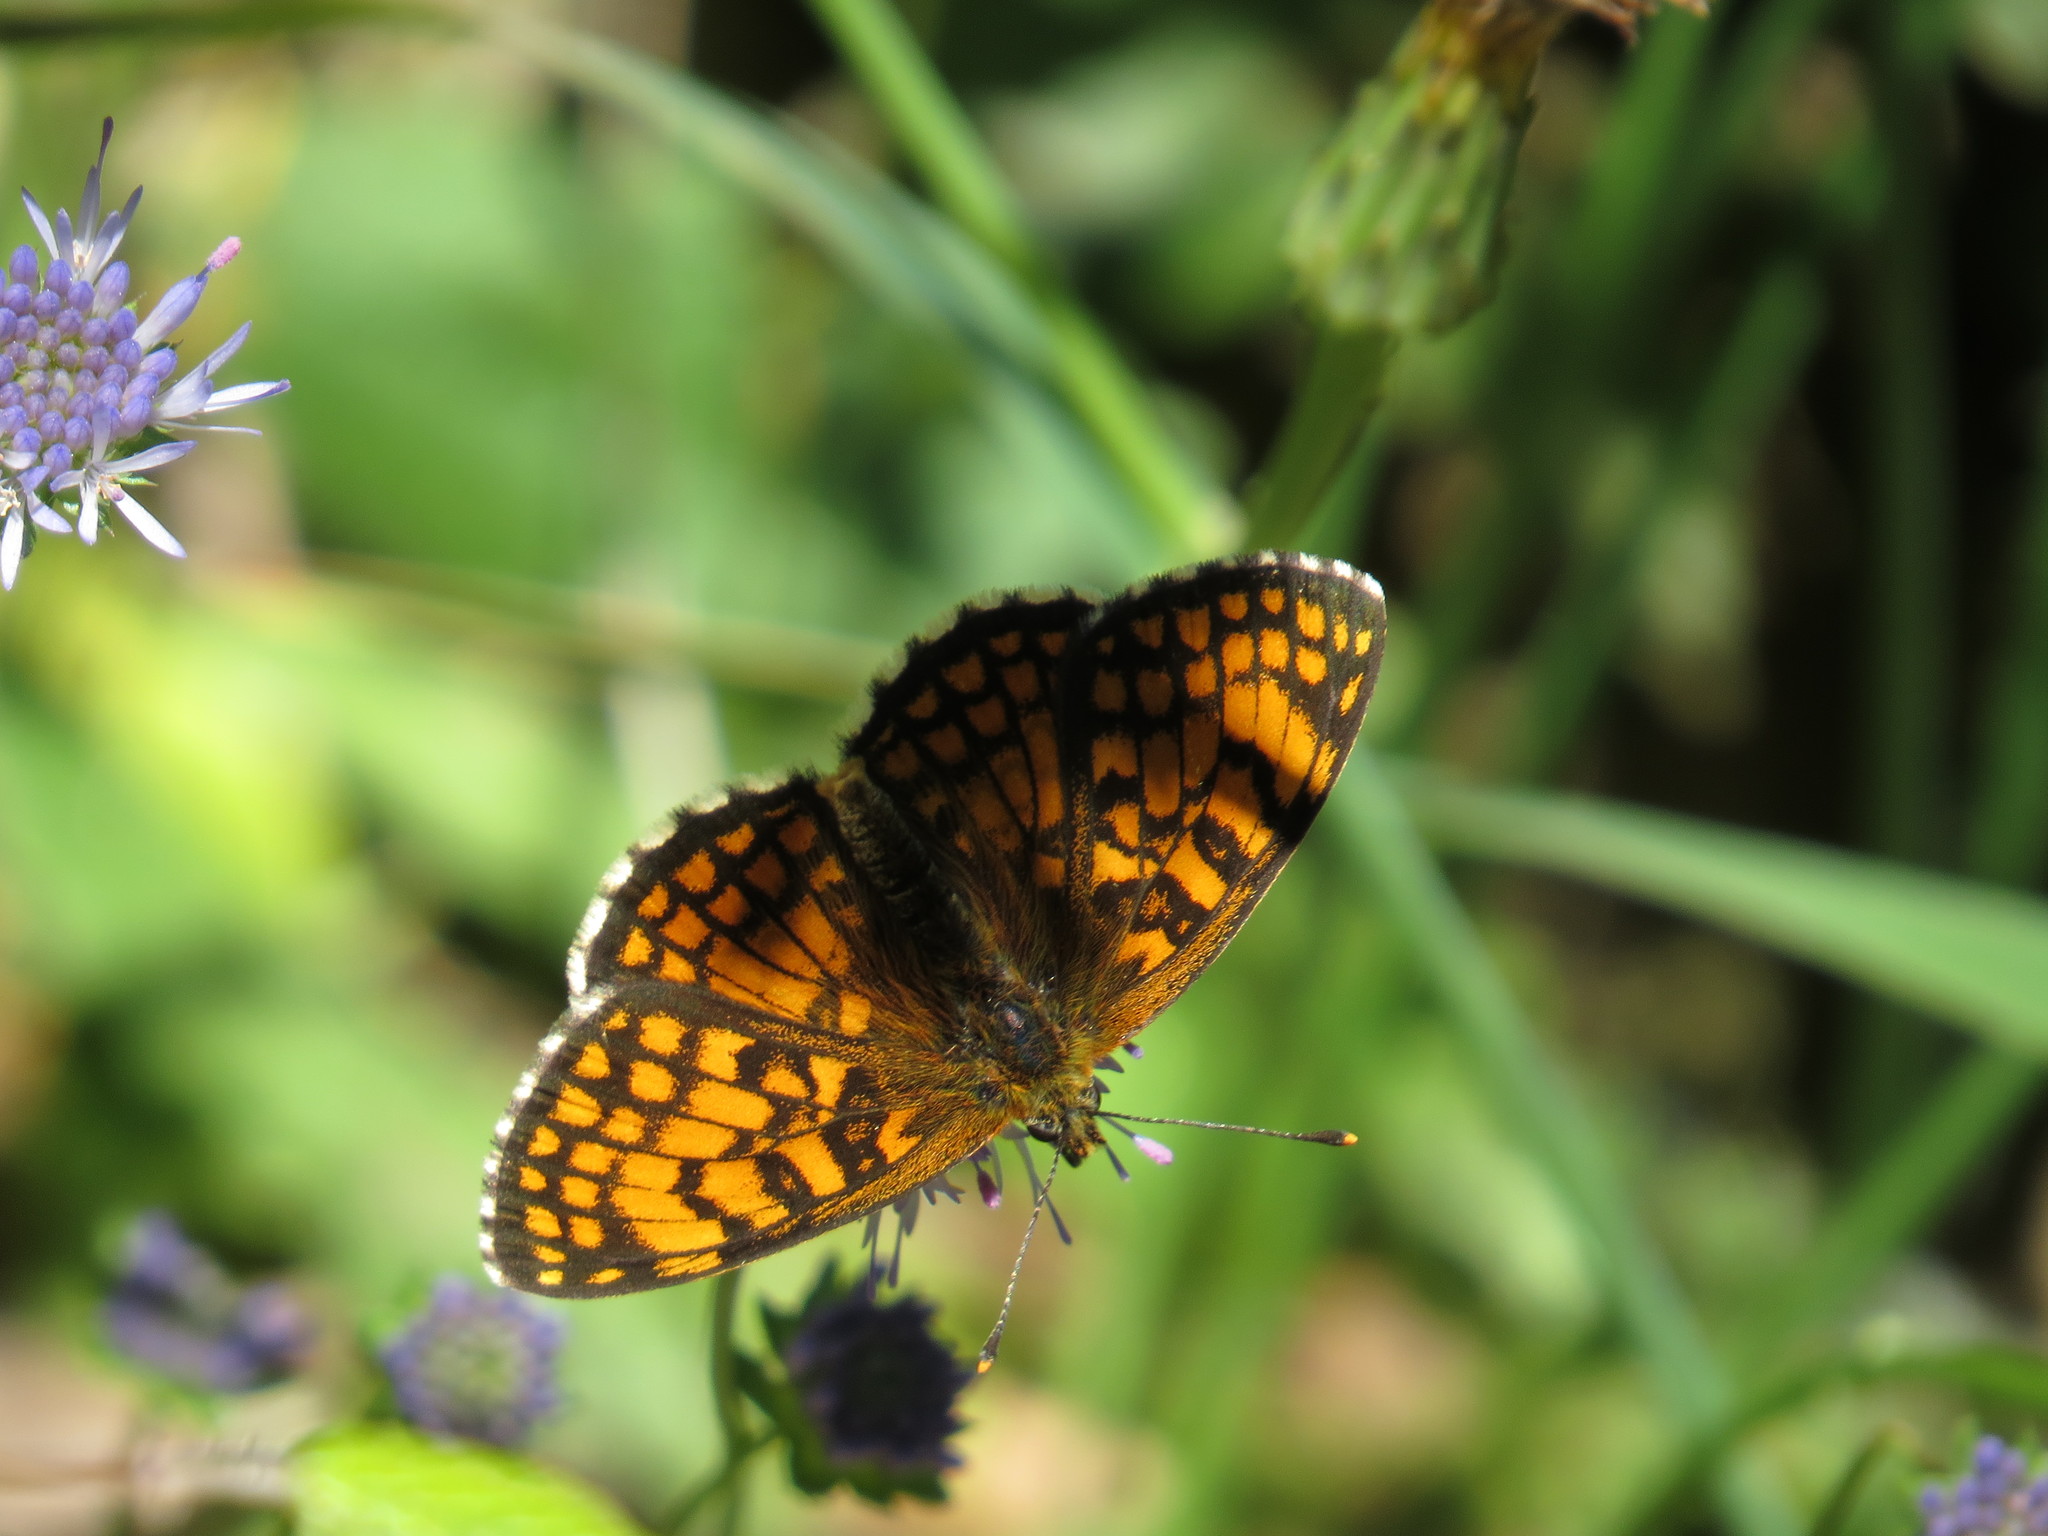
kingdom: Animalia
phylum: Arthropoda
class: Insecta
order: Lepidoptera
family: Nymphalidae
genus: Mellicta
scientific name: Mellicta athalia
